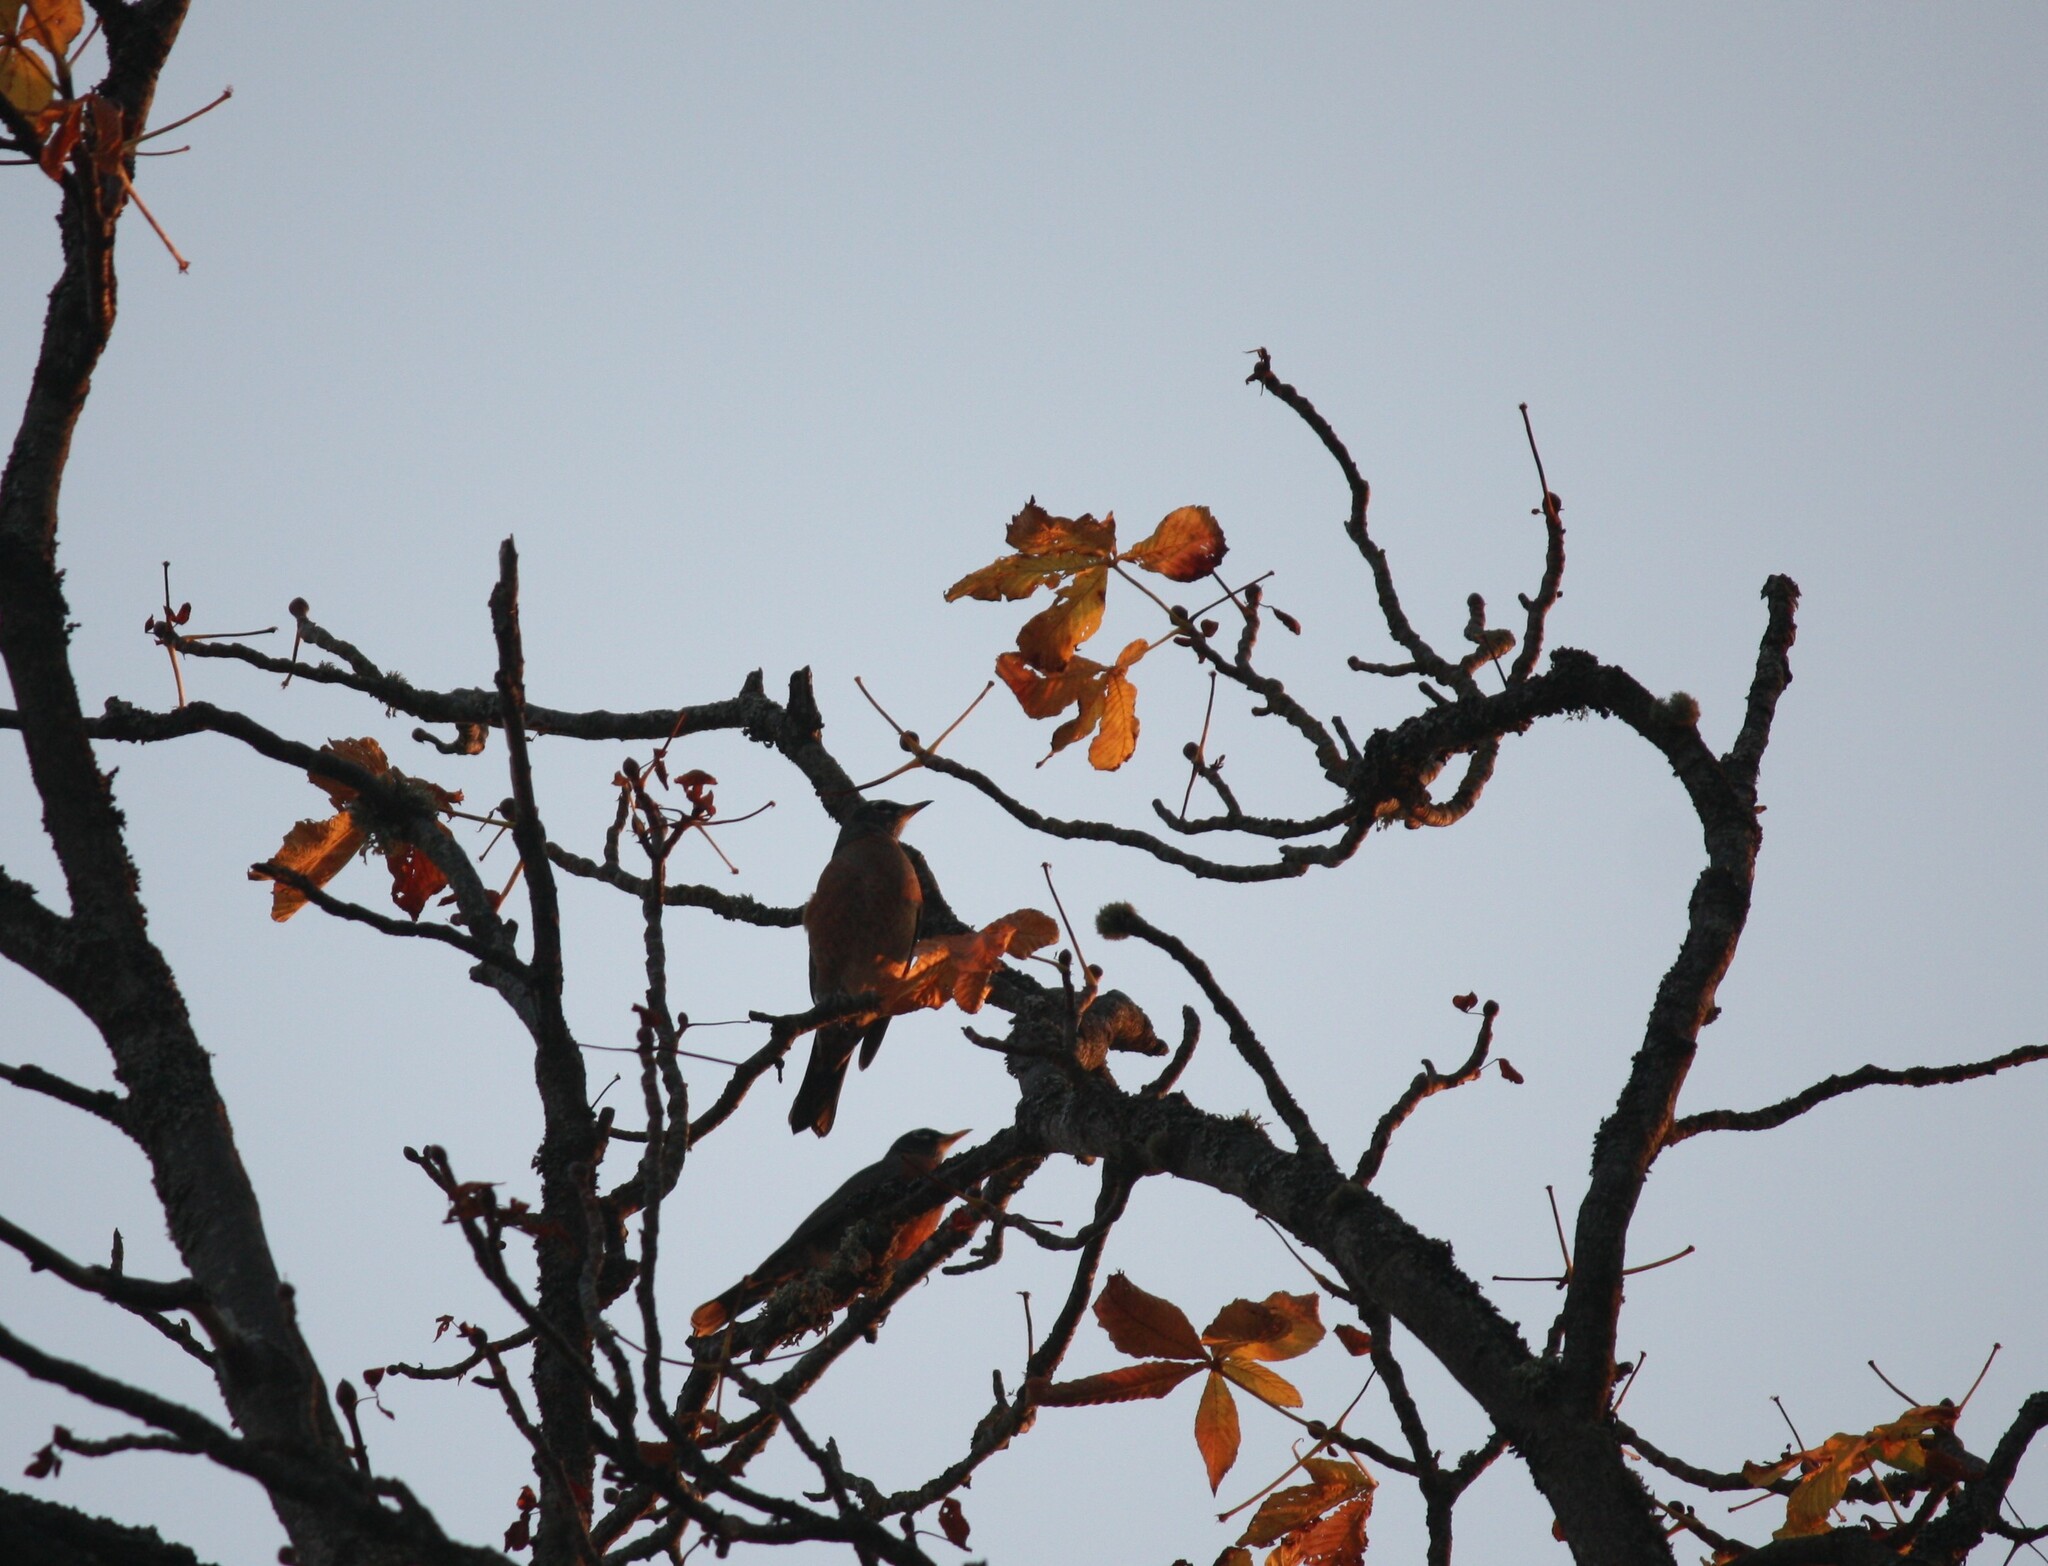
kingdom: Animalia
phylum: Chordata
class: Aves
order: Passeriformes
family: Turdidae
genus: Turdus
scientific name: Turdus migratorius
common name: American robin
